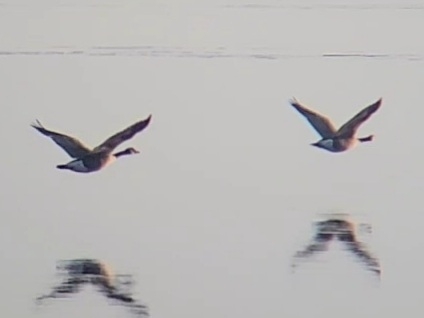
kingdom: Animalia
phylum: Chordata
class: Aves
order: Anseriformes
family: Anatidae
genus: Branta
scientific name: Branta canadensis
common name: Canada goose
